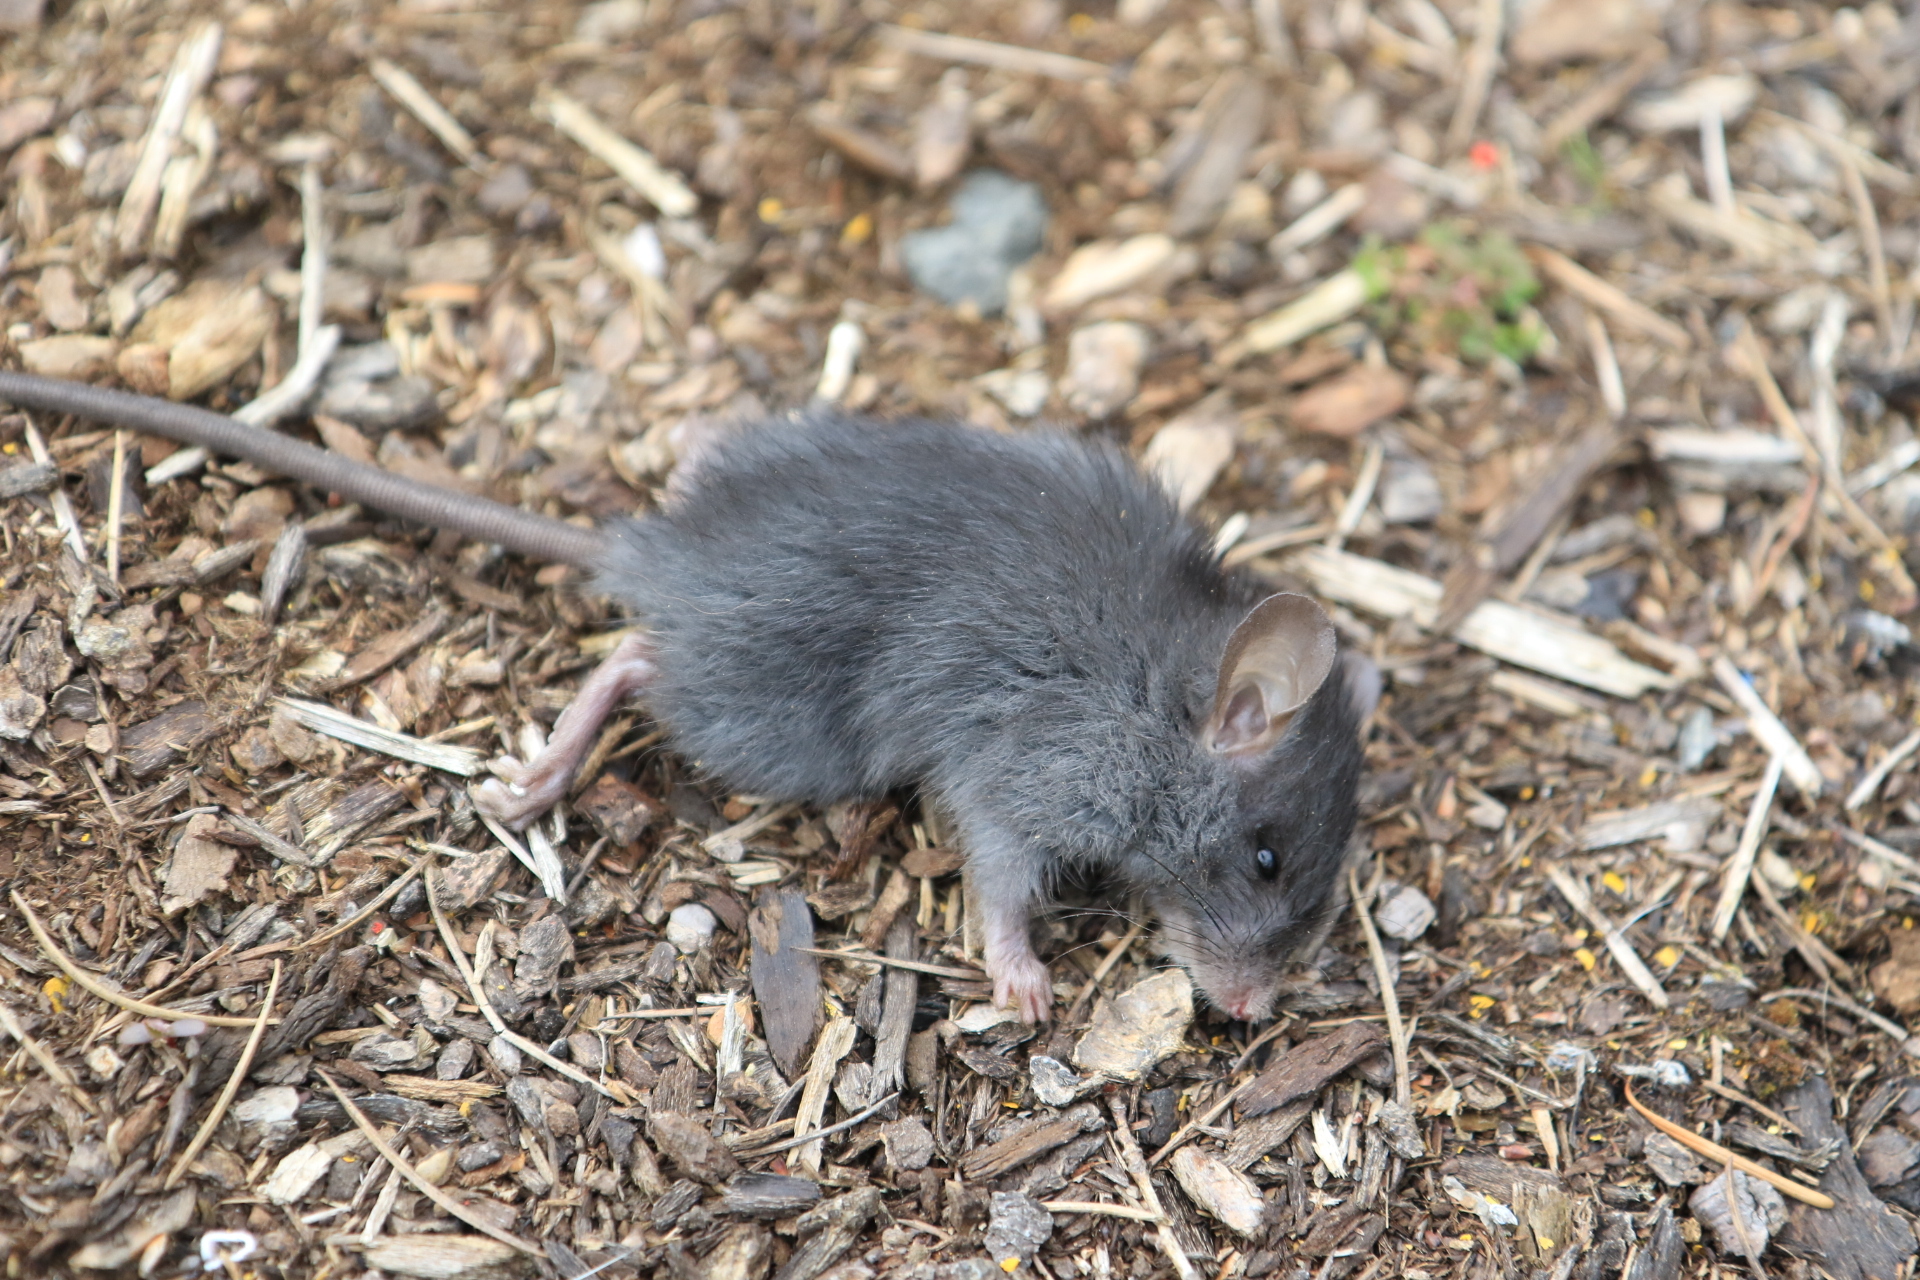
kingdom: Animalia
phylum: Chordata
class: Mammalia
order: Rodentia
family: Muridae
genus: Rattus
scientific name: Rattus rattus
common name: Black rat
